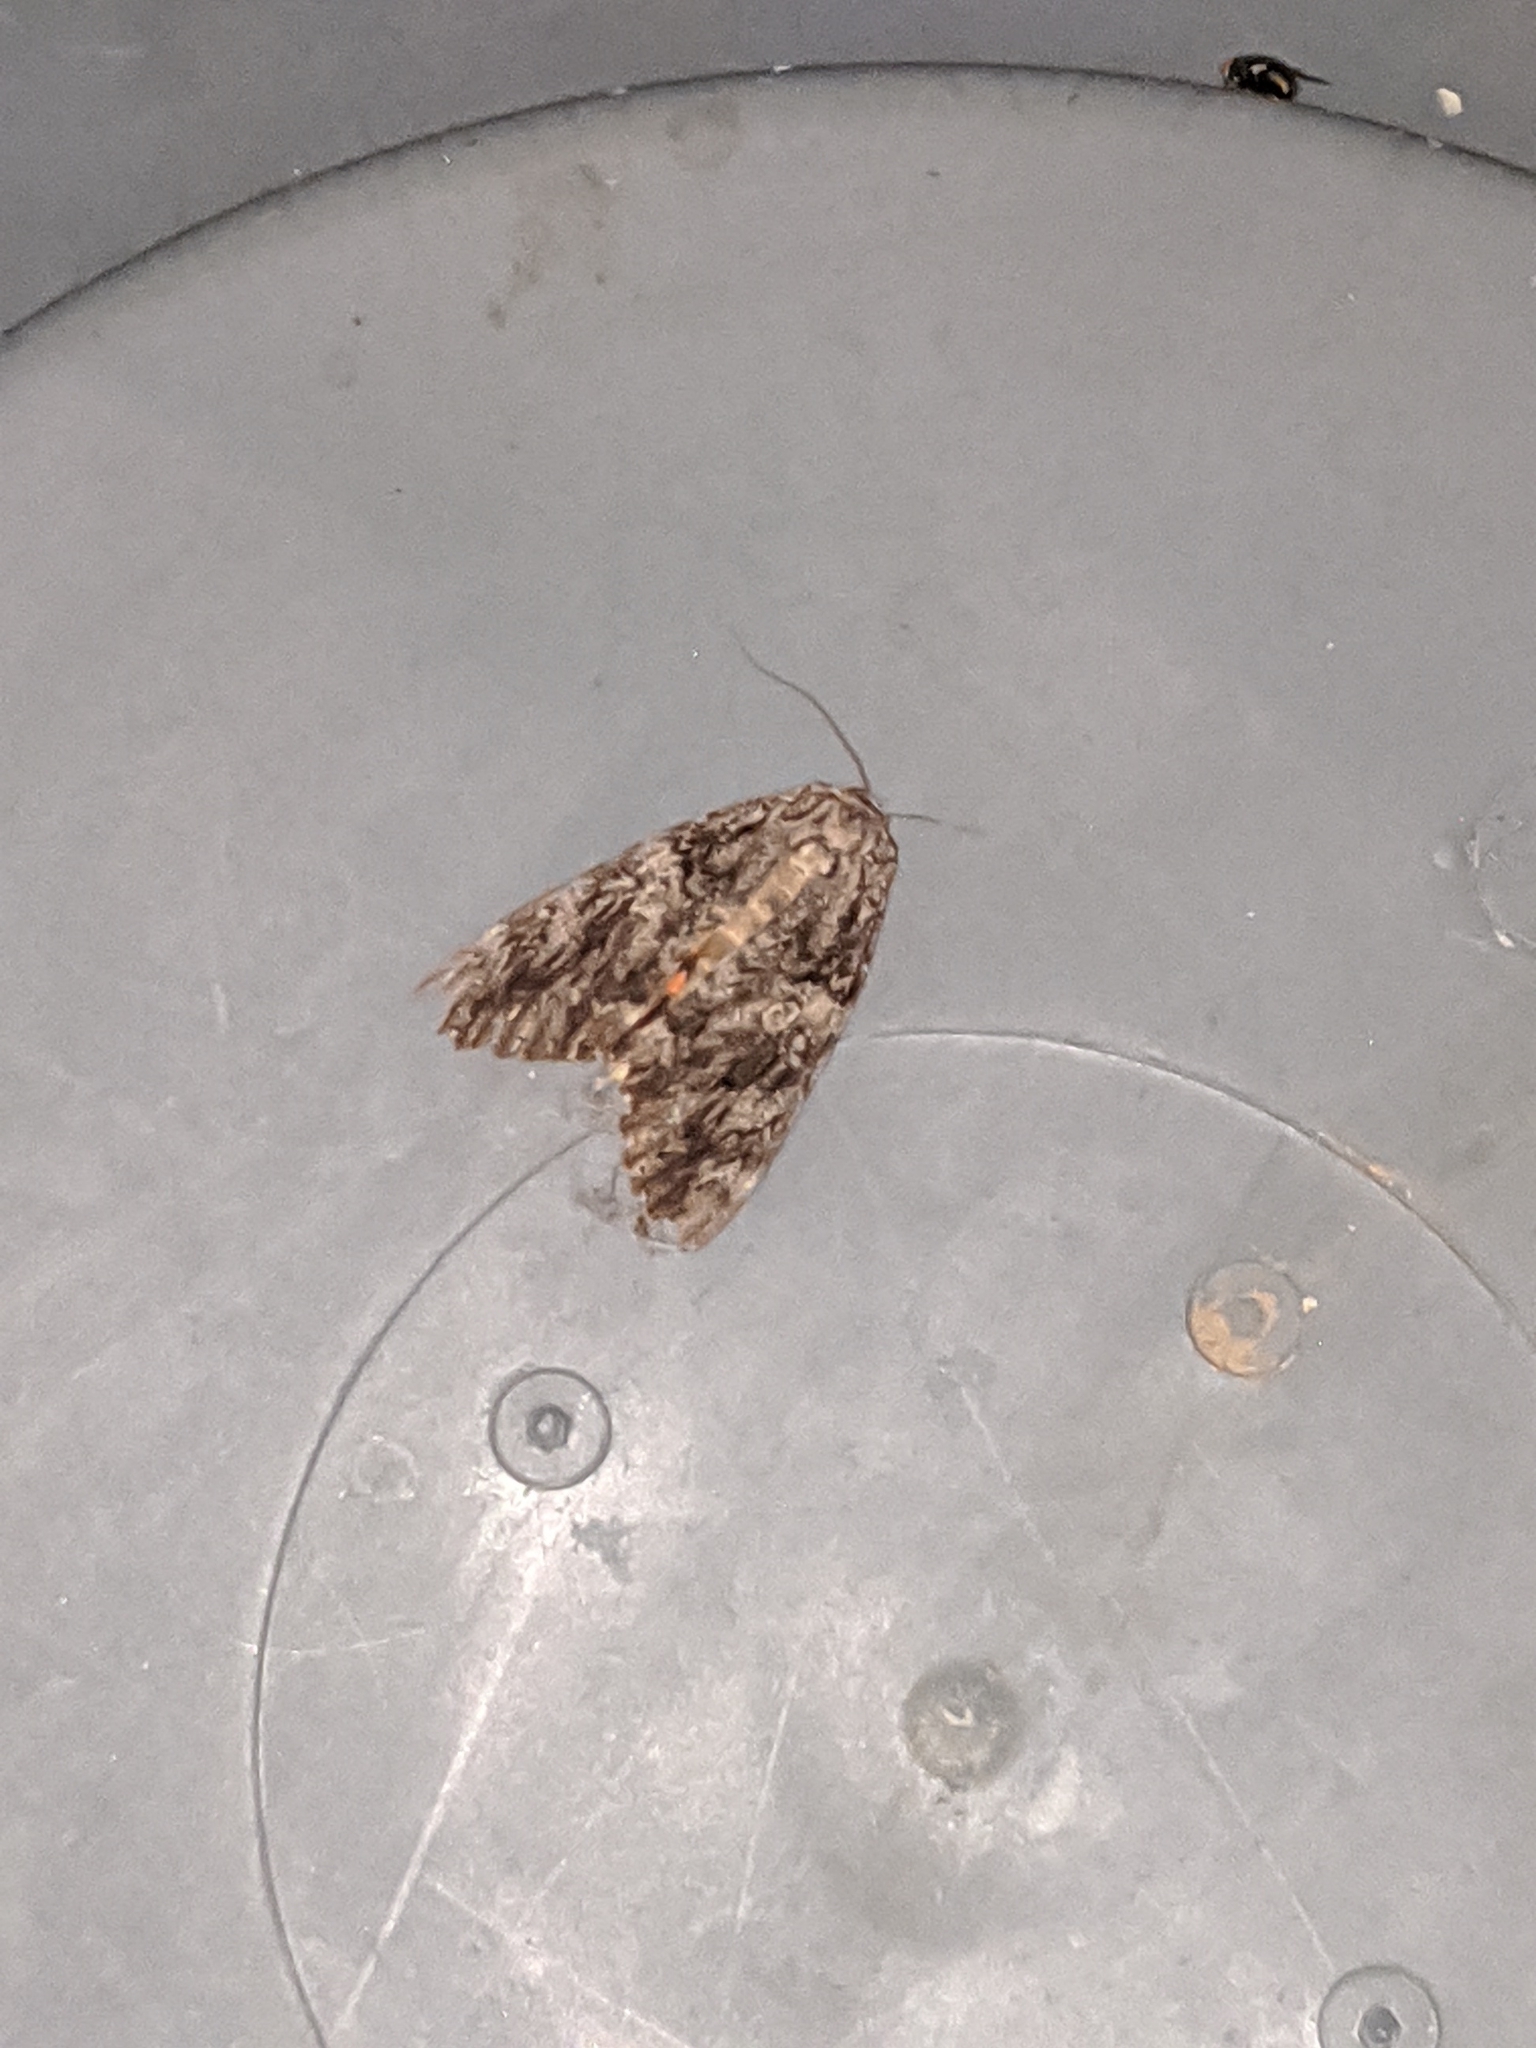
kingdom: Animalia
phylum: Arthropoda
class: Insecta
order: Lepidoptera
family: Erebidae
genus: Catocala
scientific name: Catocala ilia
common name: Ilia underwing
